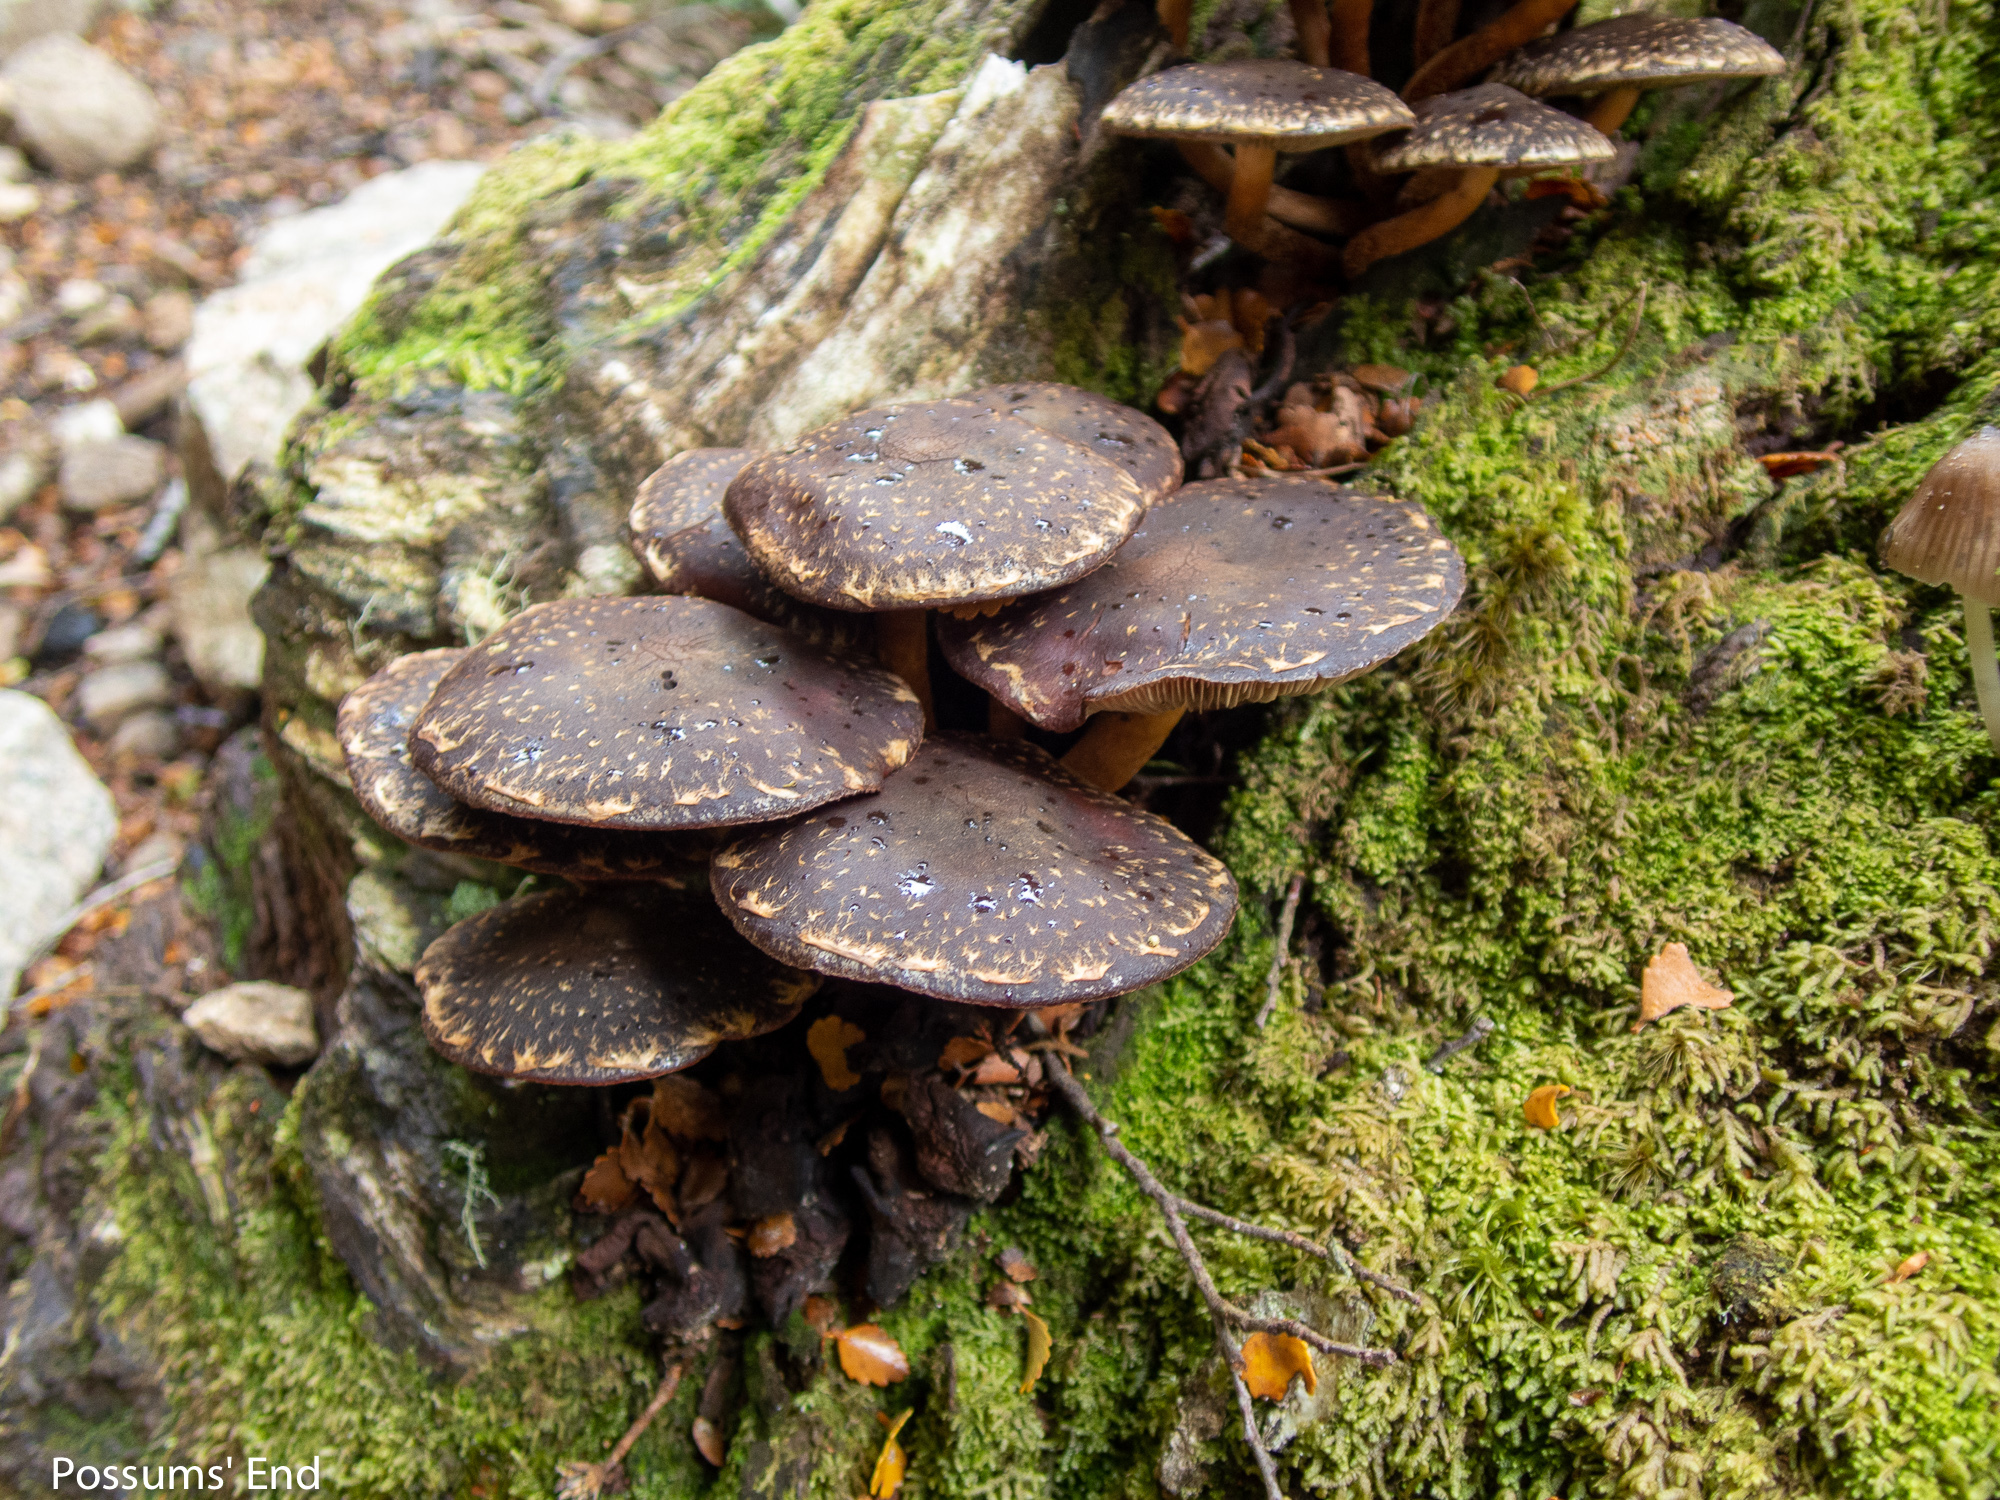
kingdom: Fungi
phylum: Basidiomycota
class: Agaricomycetes
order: Agaricales
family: Strophariaceae
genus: Hypholoma
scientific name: Hypholoma brunneum
